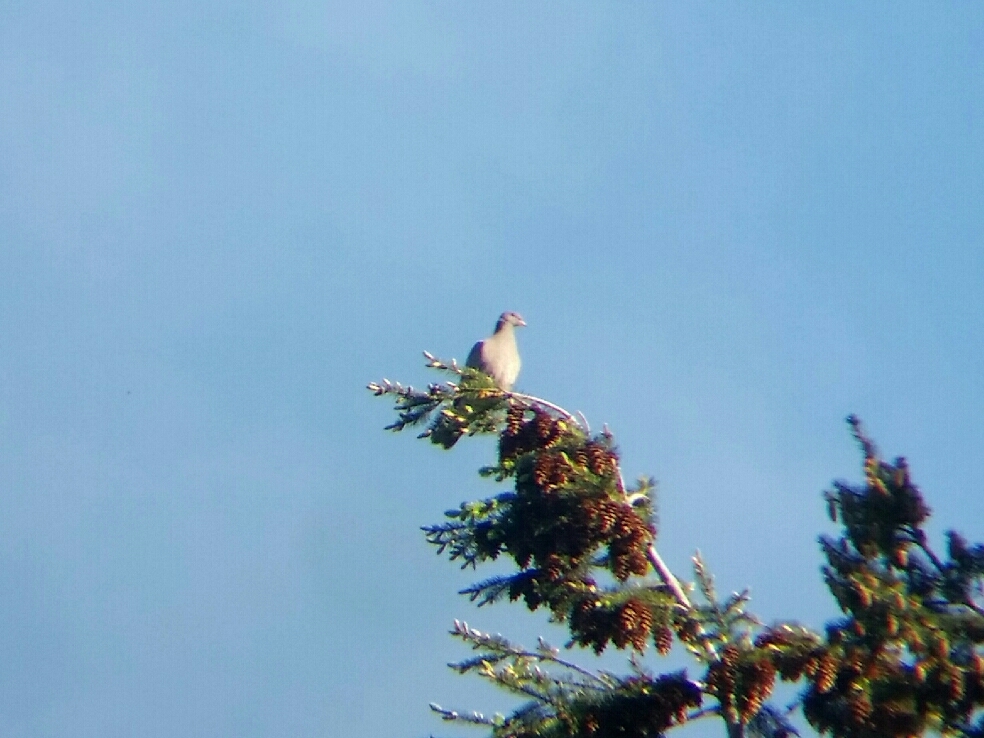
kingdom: Animalia
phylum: Chordata
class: Aves
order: Columbiformes
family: Columbidae
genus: Patagioenas
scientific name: Patagioenas fasciata
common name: Band-tailed pigeon
